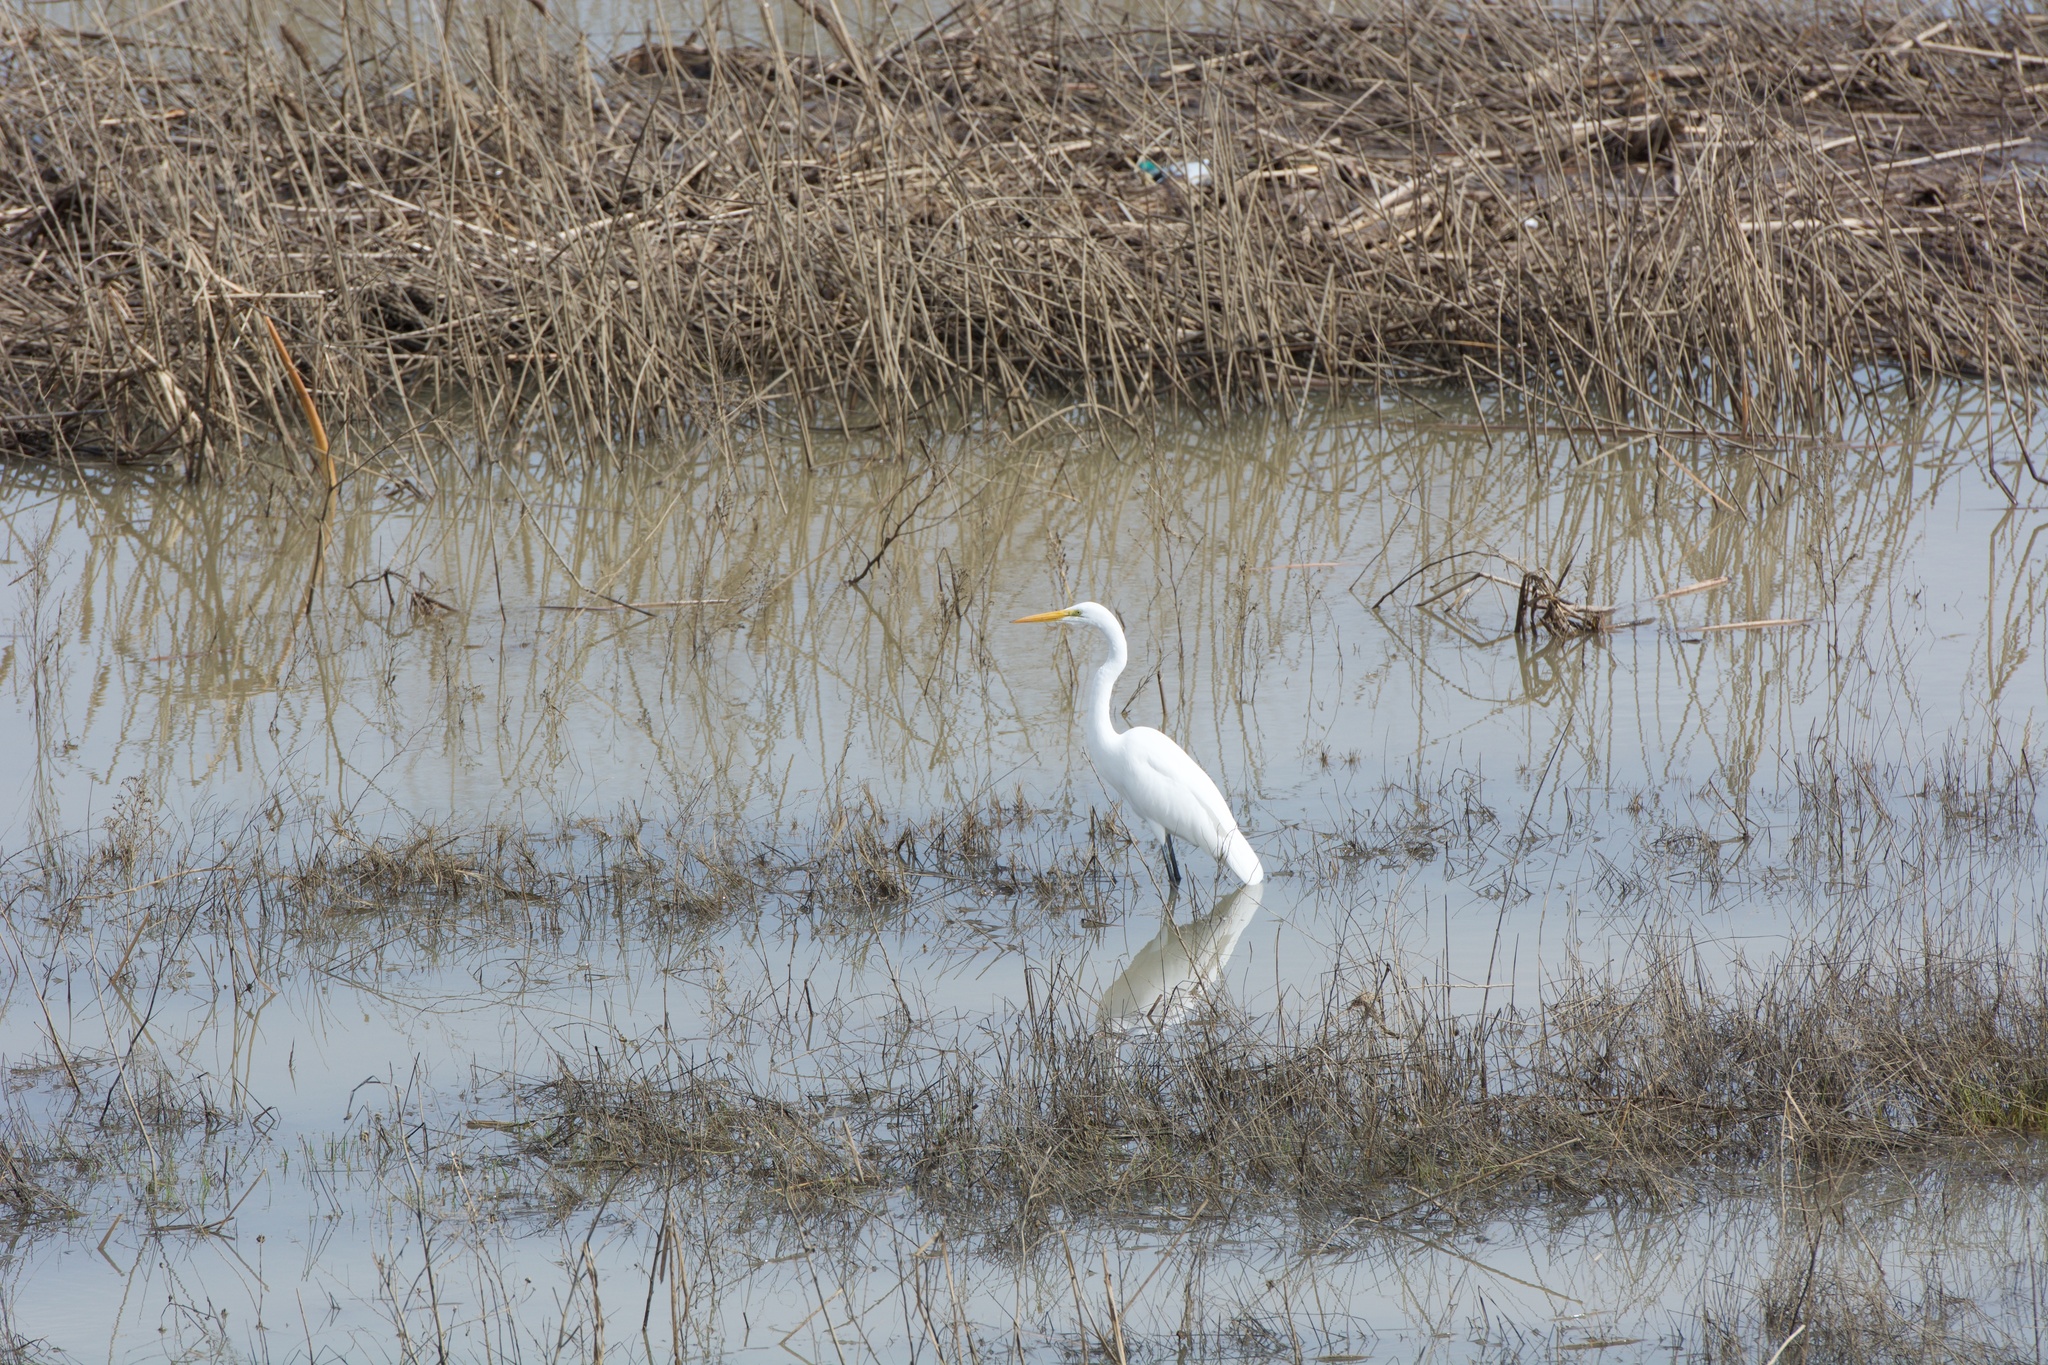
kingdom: Animalia
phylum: Chordata
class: Aves
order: Pelecaniformes
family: Ardeidae
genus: Ardea
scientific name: Ardea alba
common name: Great egret
